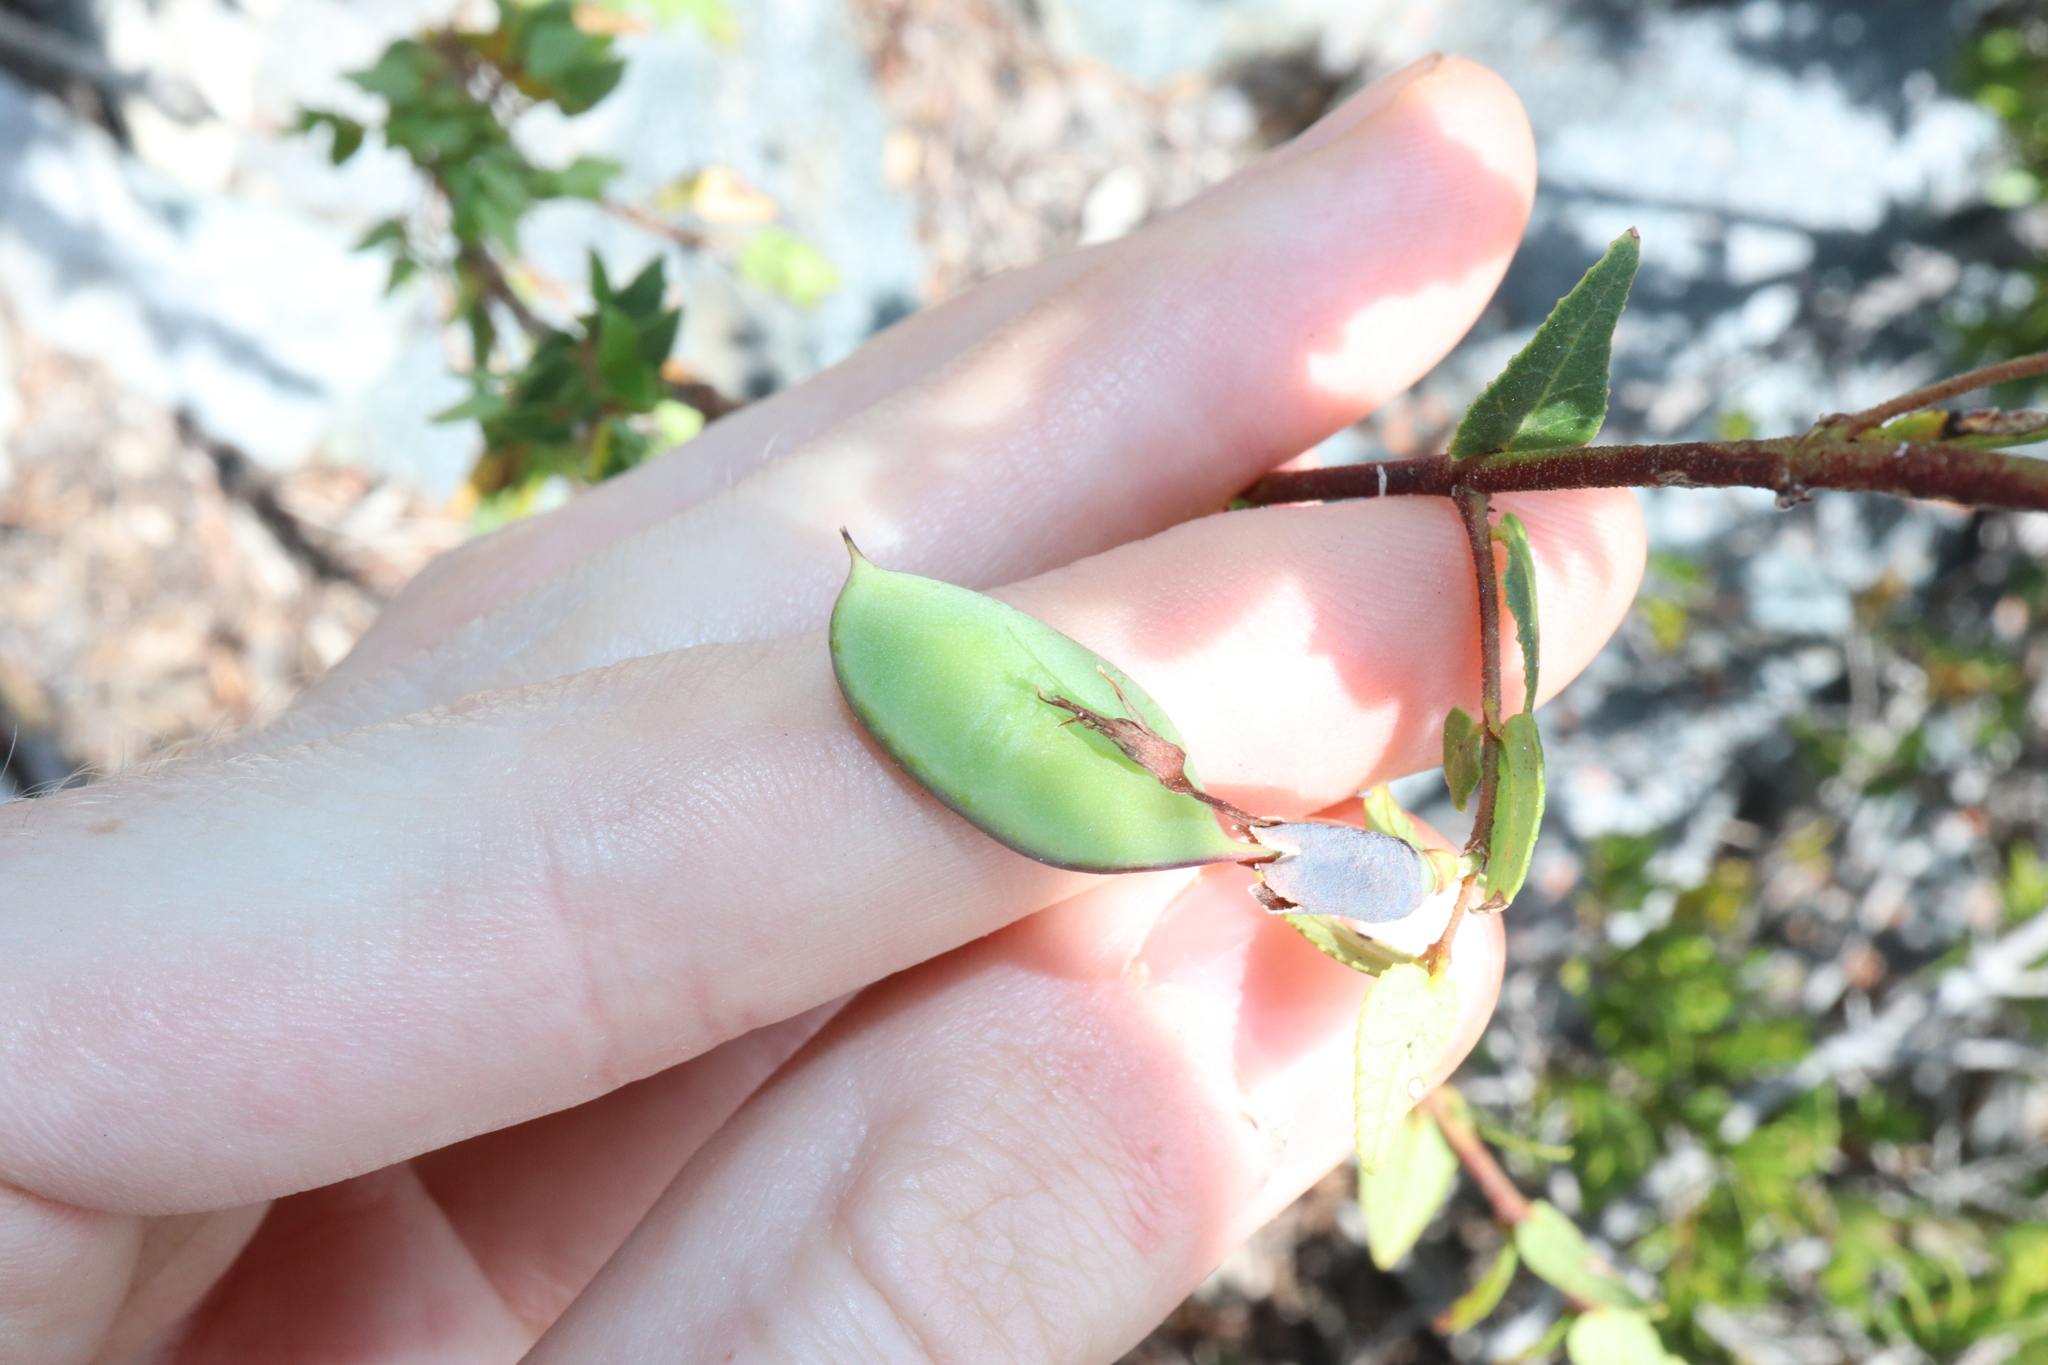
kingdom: Plantae
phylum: Tracheophyta
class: Magnoliopsida
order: Fabales
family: Fabaceae
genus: Bossiaea
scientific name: Bossiaea dentata
